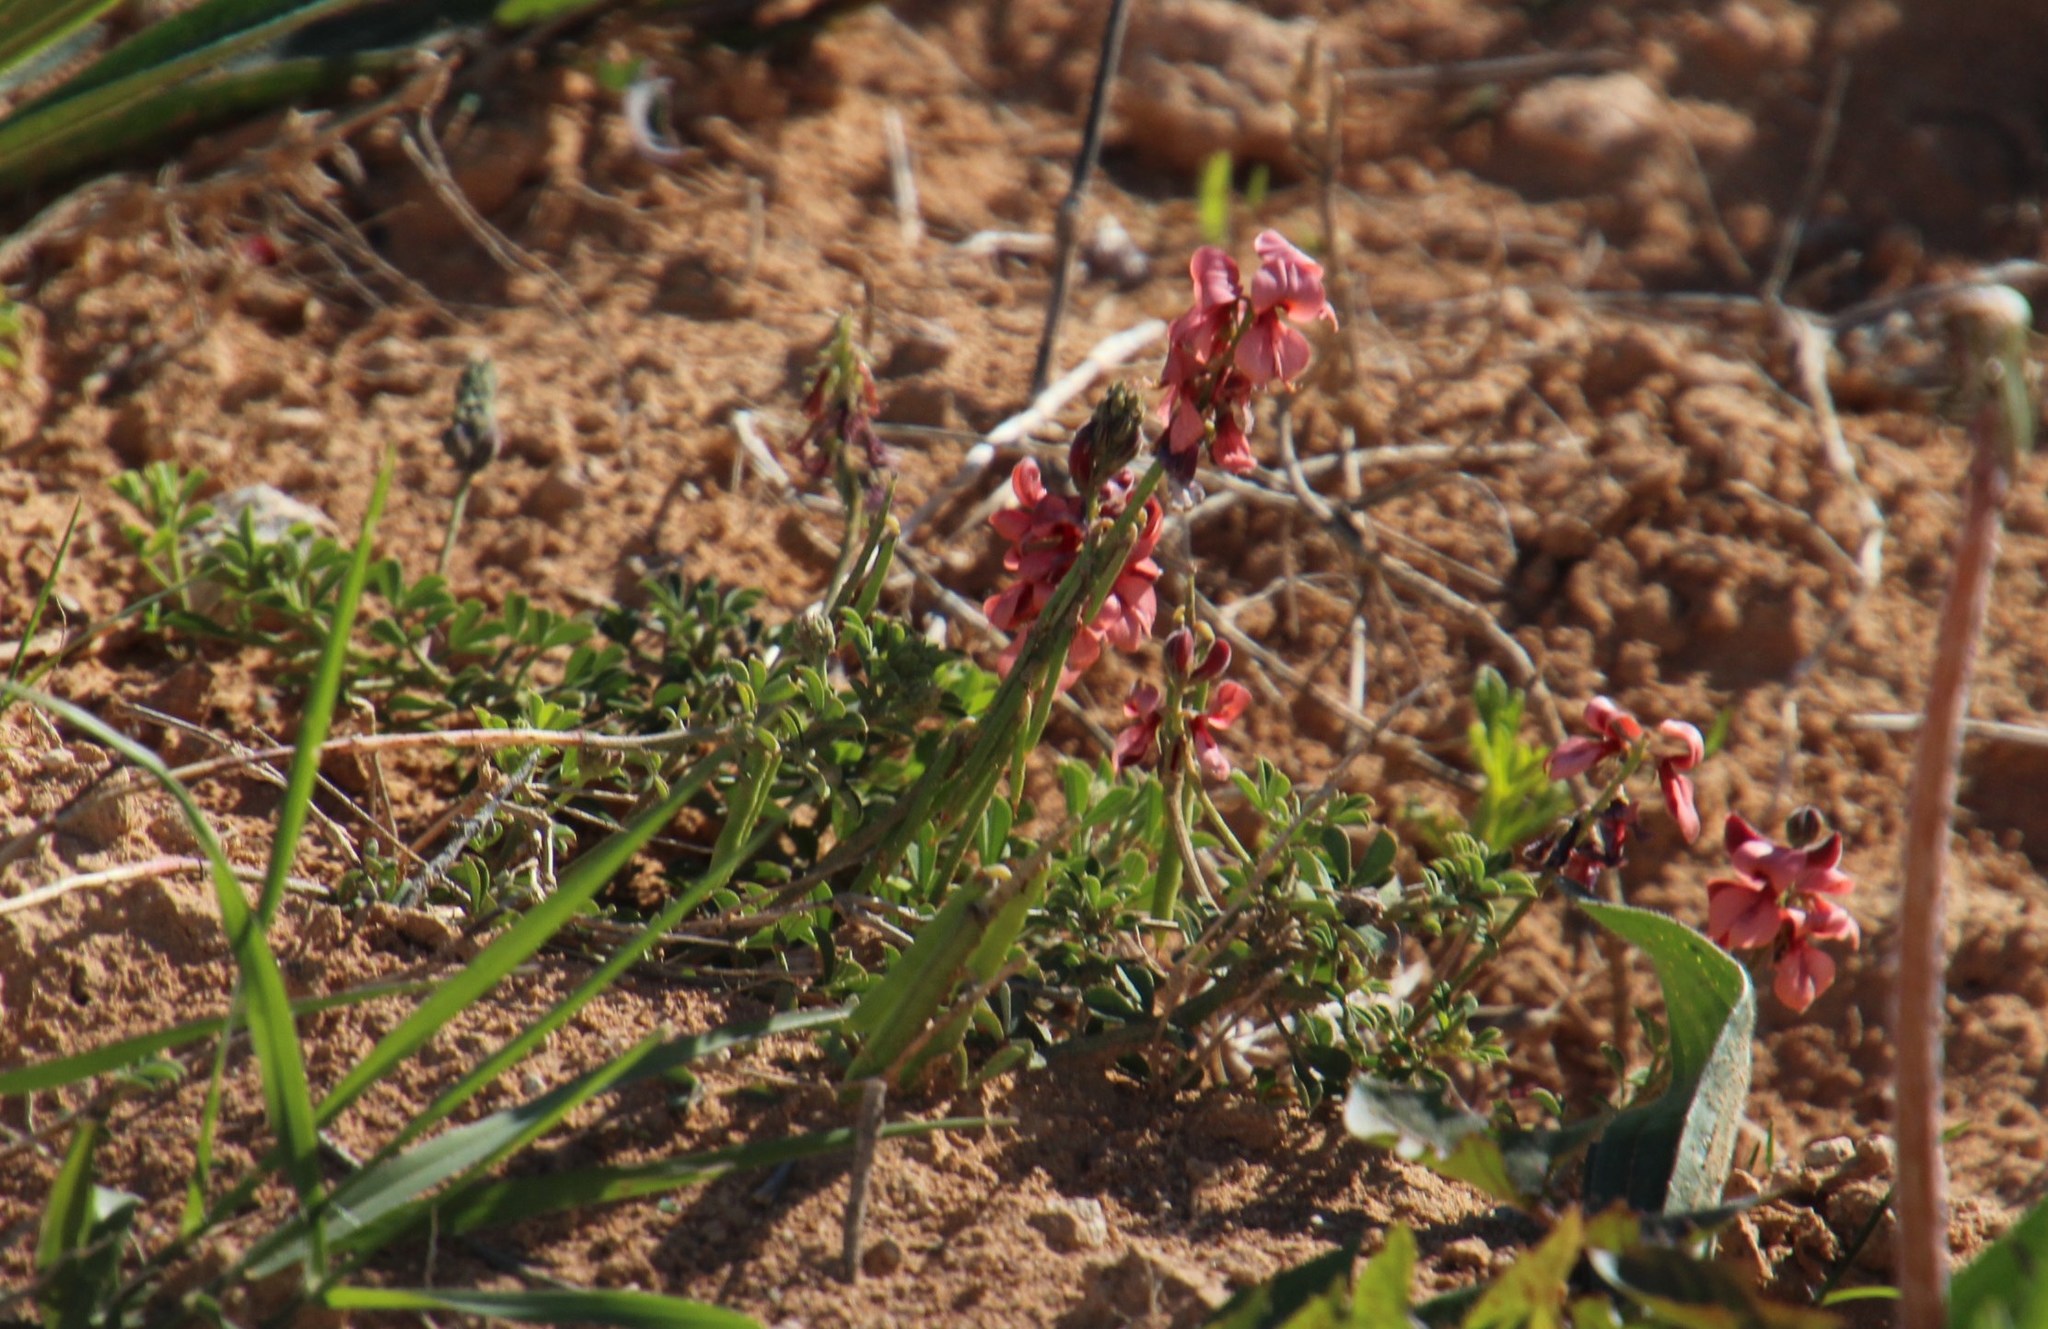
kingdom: Plantae
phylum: Tracheophyta
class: Magnoliopsida
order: Fabales
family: Fabaceae
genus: Indigofera
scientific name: Indigofera heterophylla
